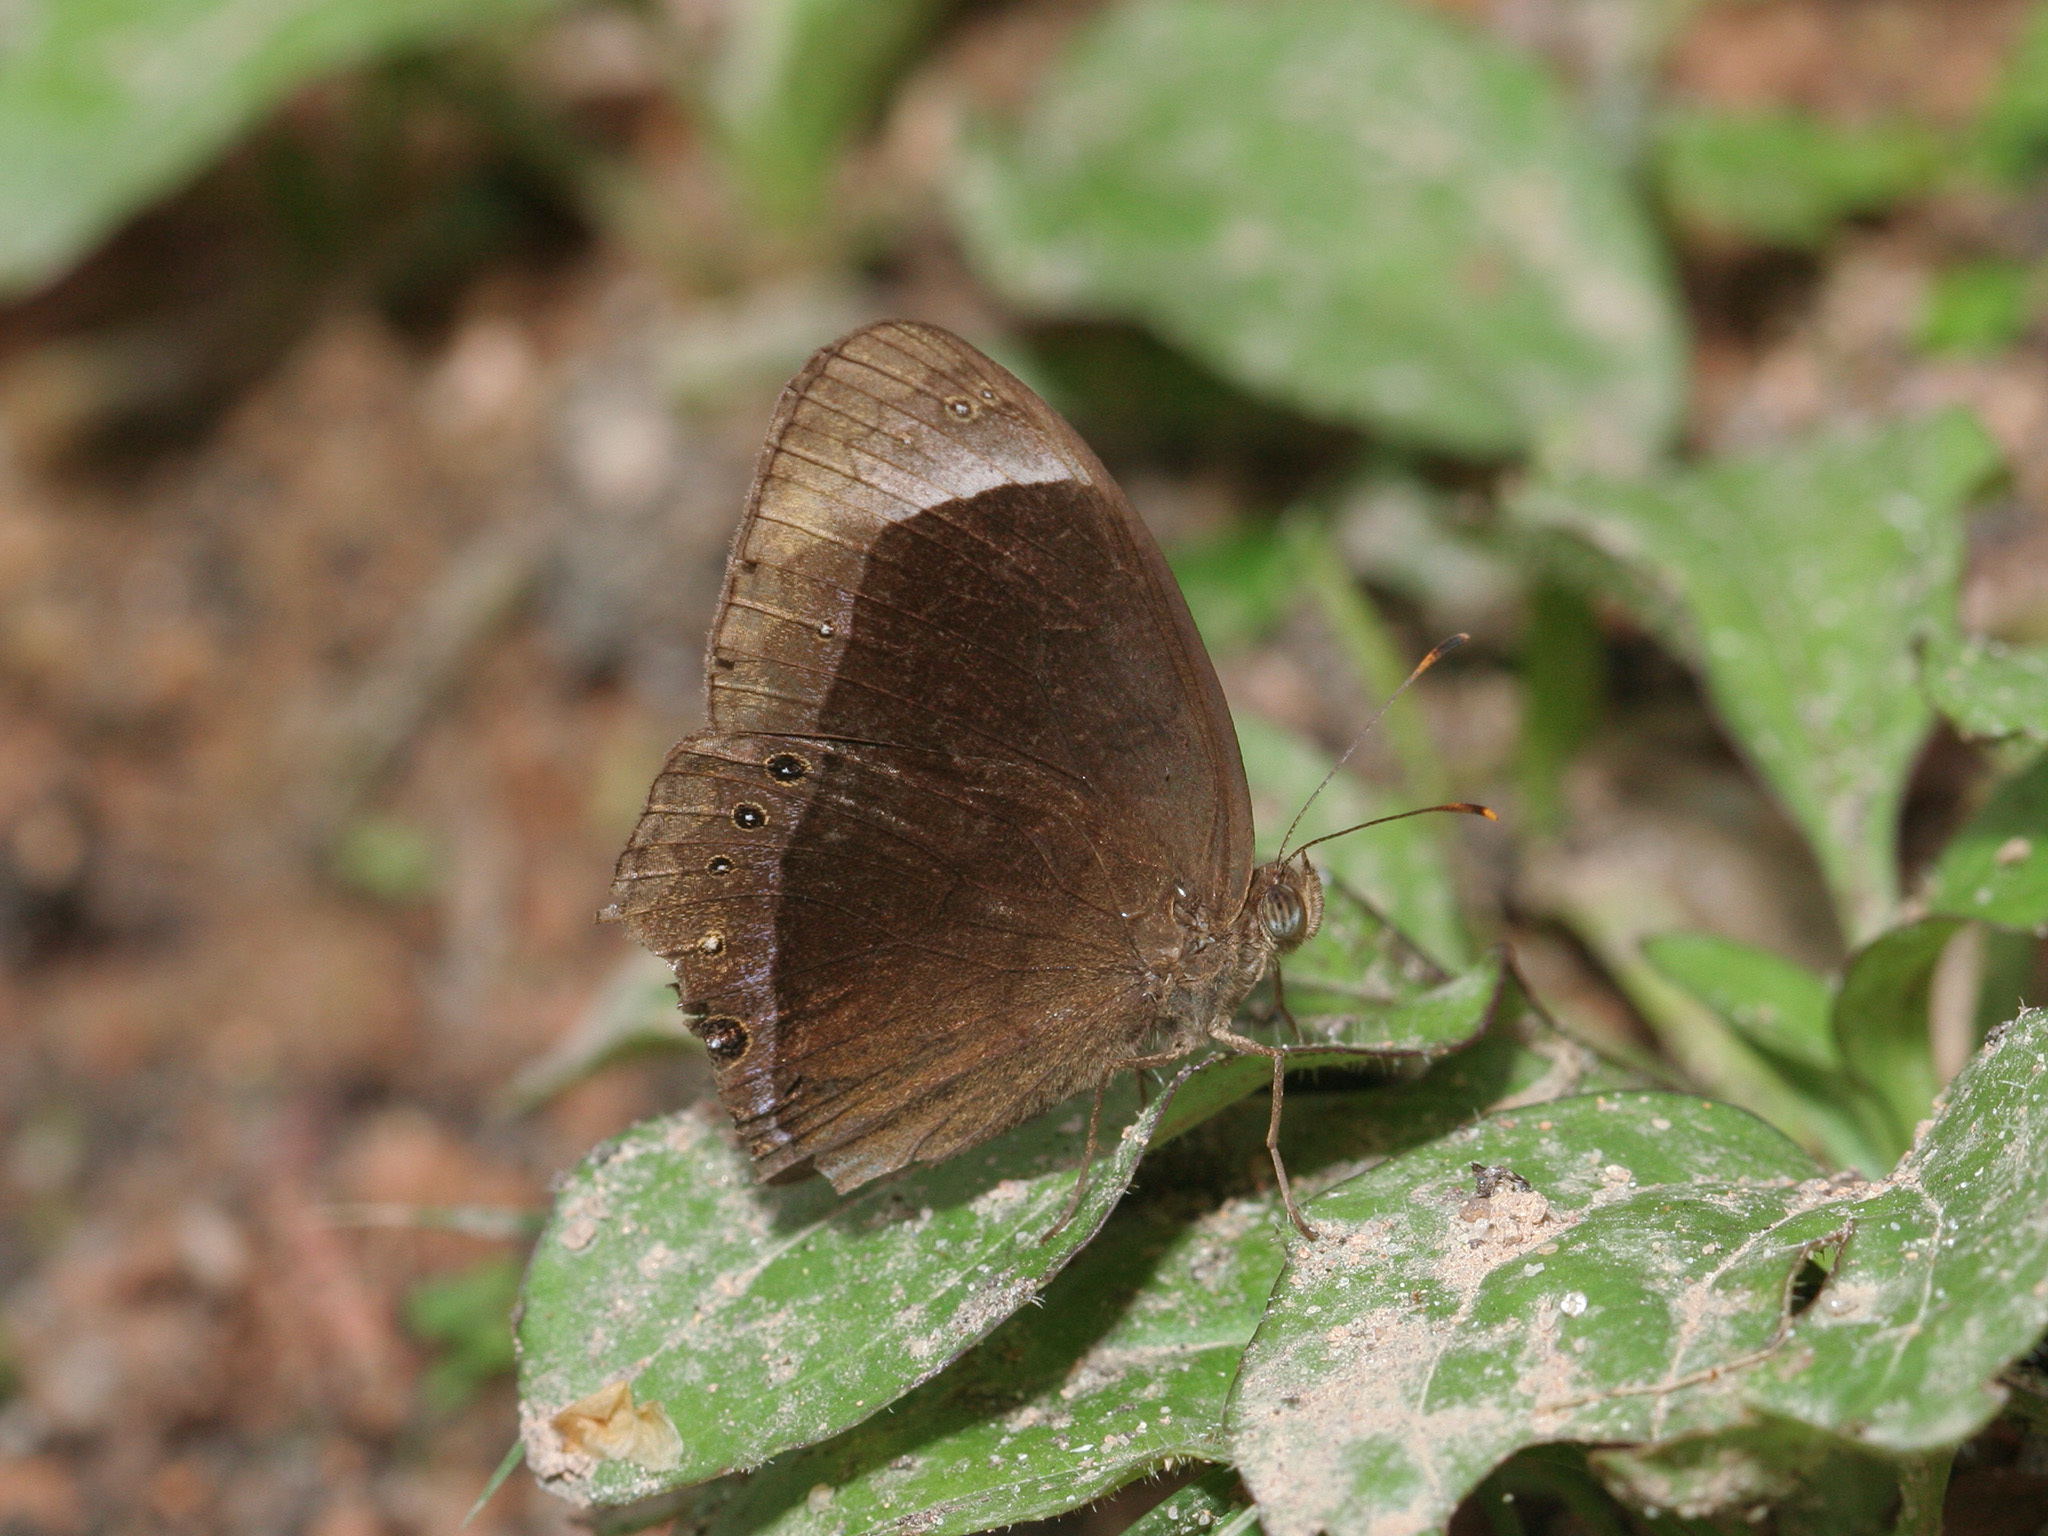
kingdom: Animalia
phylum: Arthropoda
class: Insecta
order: Lepidoptera
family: Nymphalidae
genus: Mycalesis
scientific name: Mycalesis anaxias
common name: White-bar bushbrown
